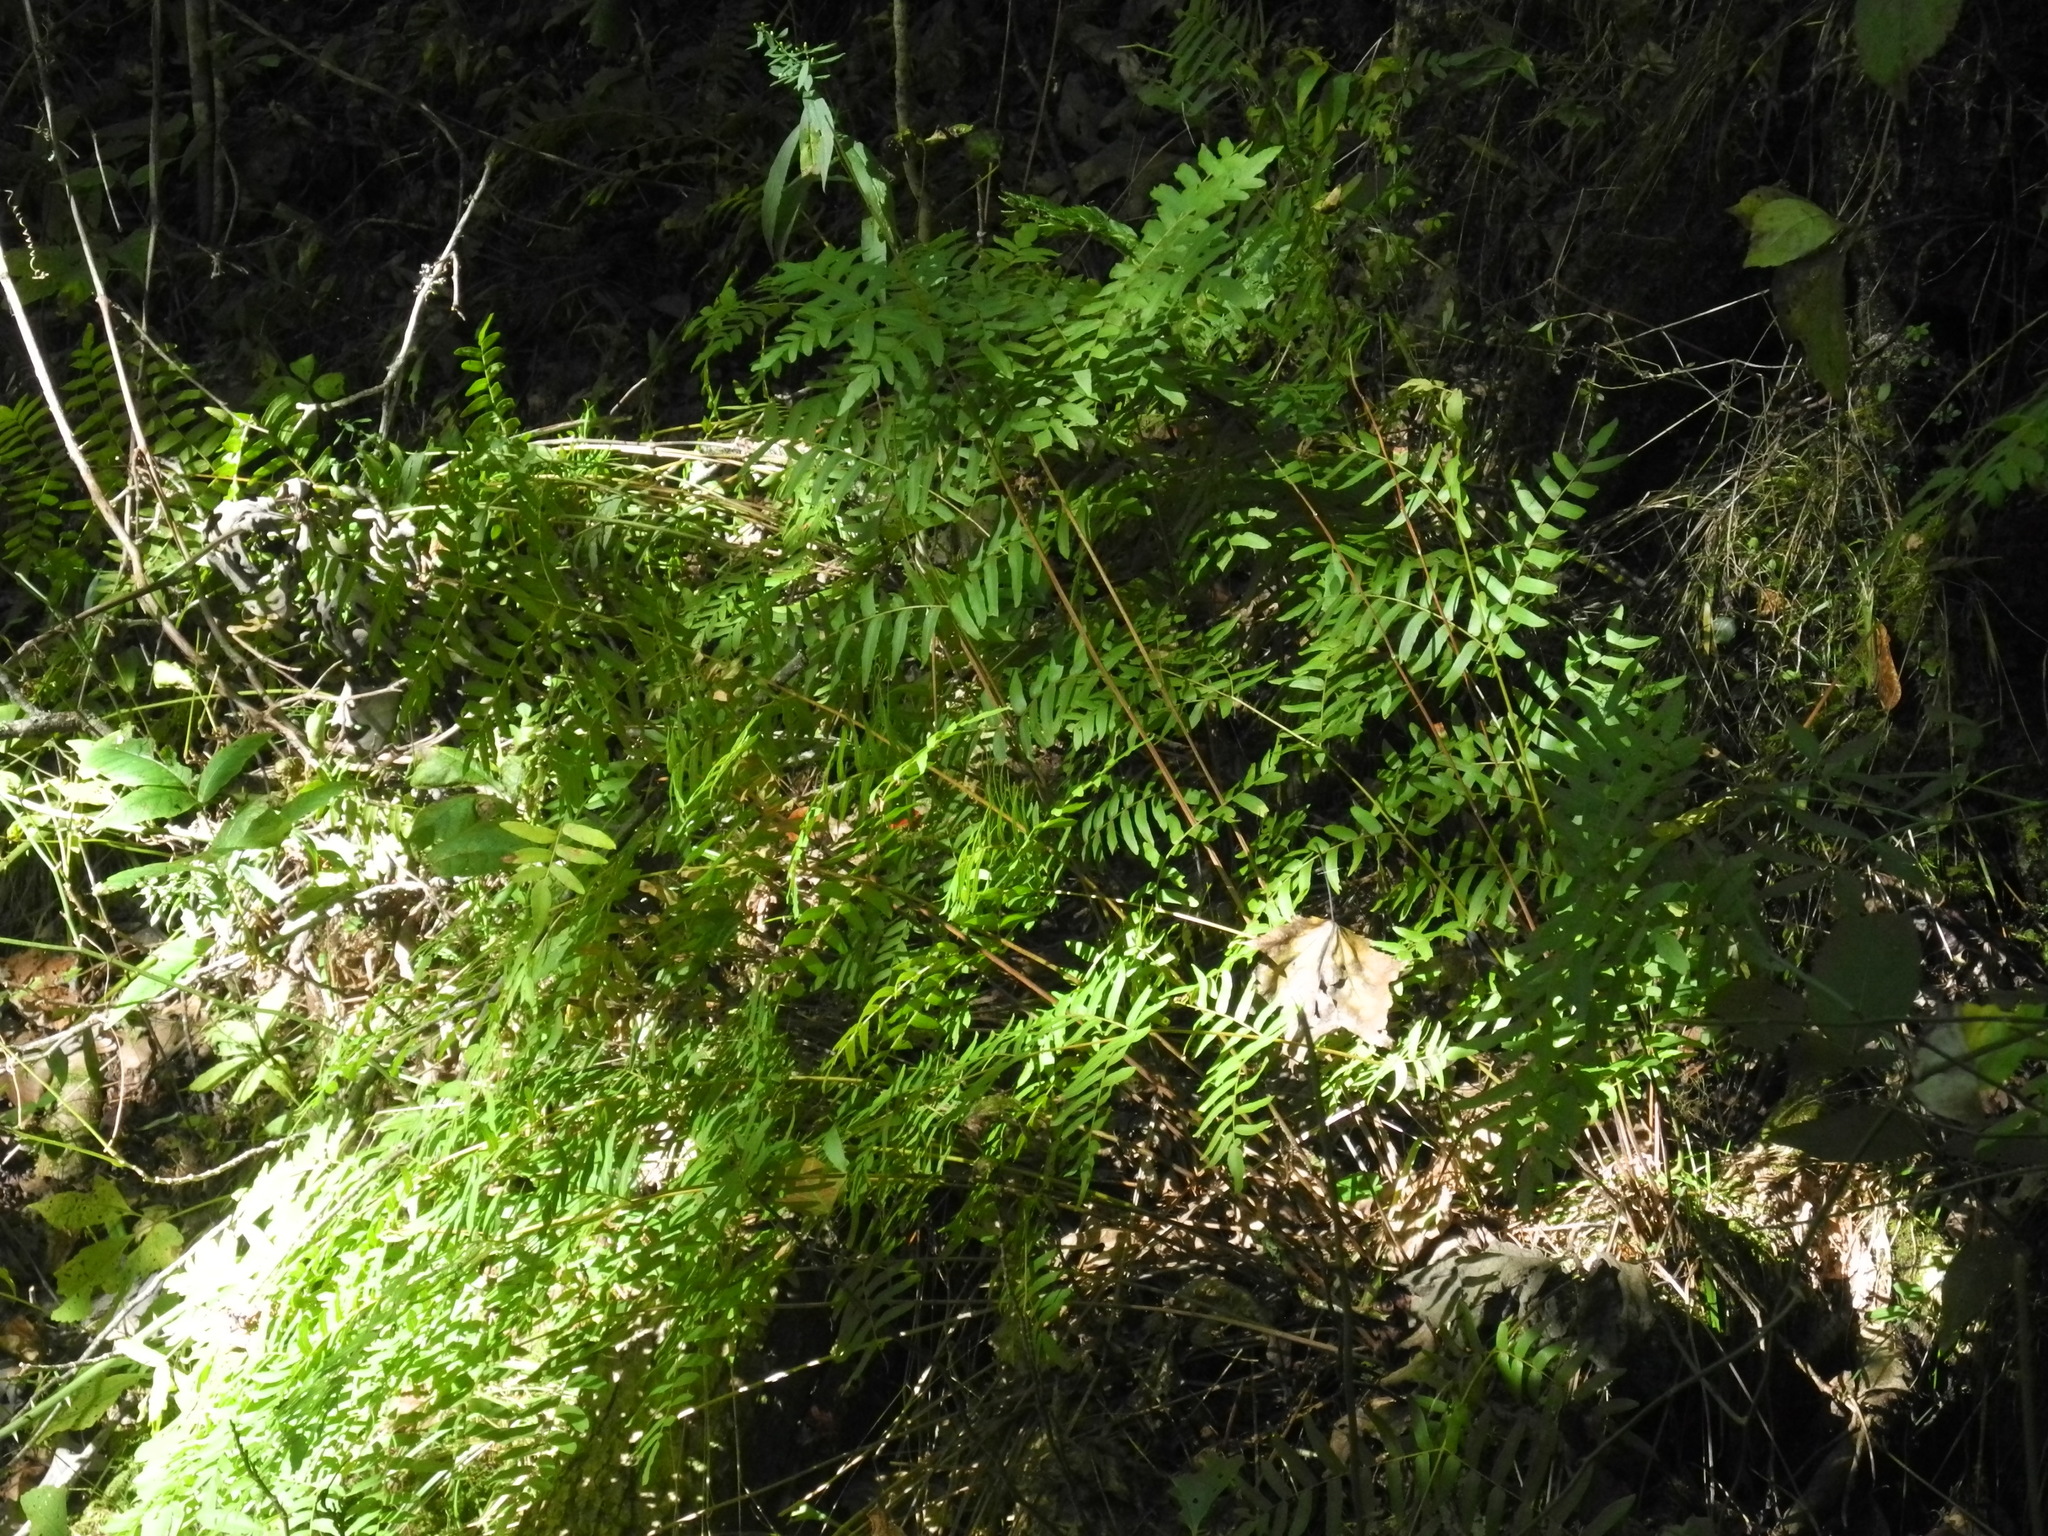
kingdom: Plantae
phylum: Tracheophyta
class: Polypodiopsida
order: Osmundales
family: Osmundaceae
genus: Osmunda
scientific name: Osmunda spectabilis
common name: American royal fern
